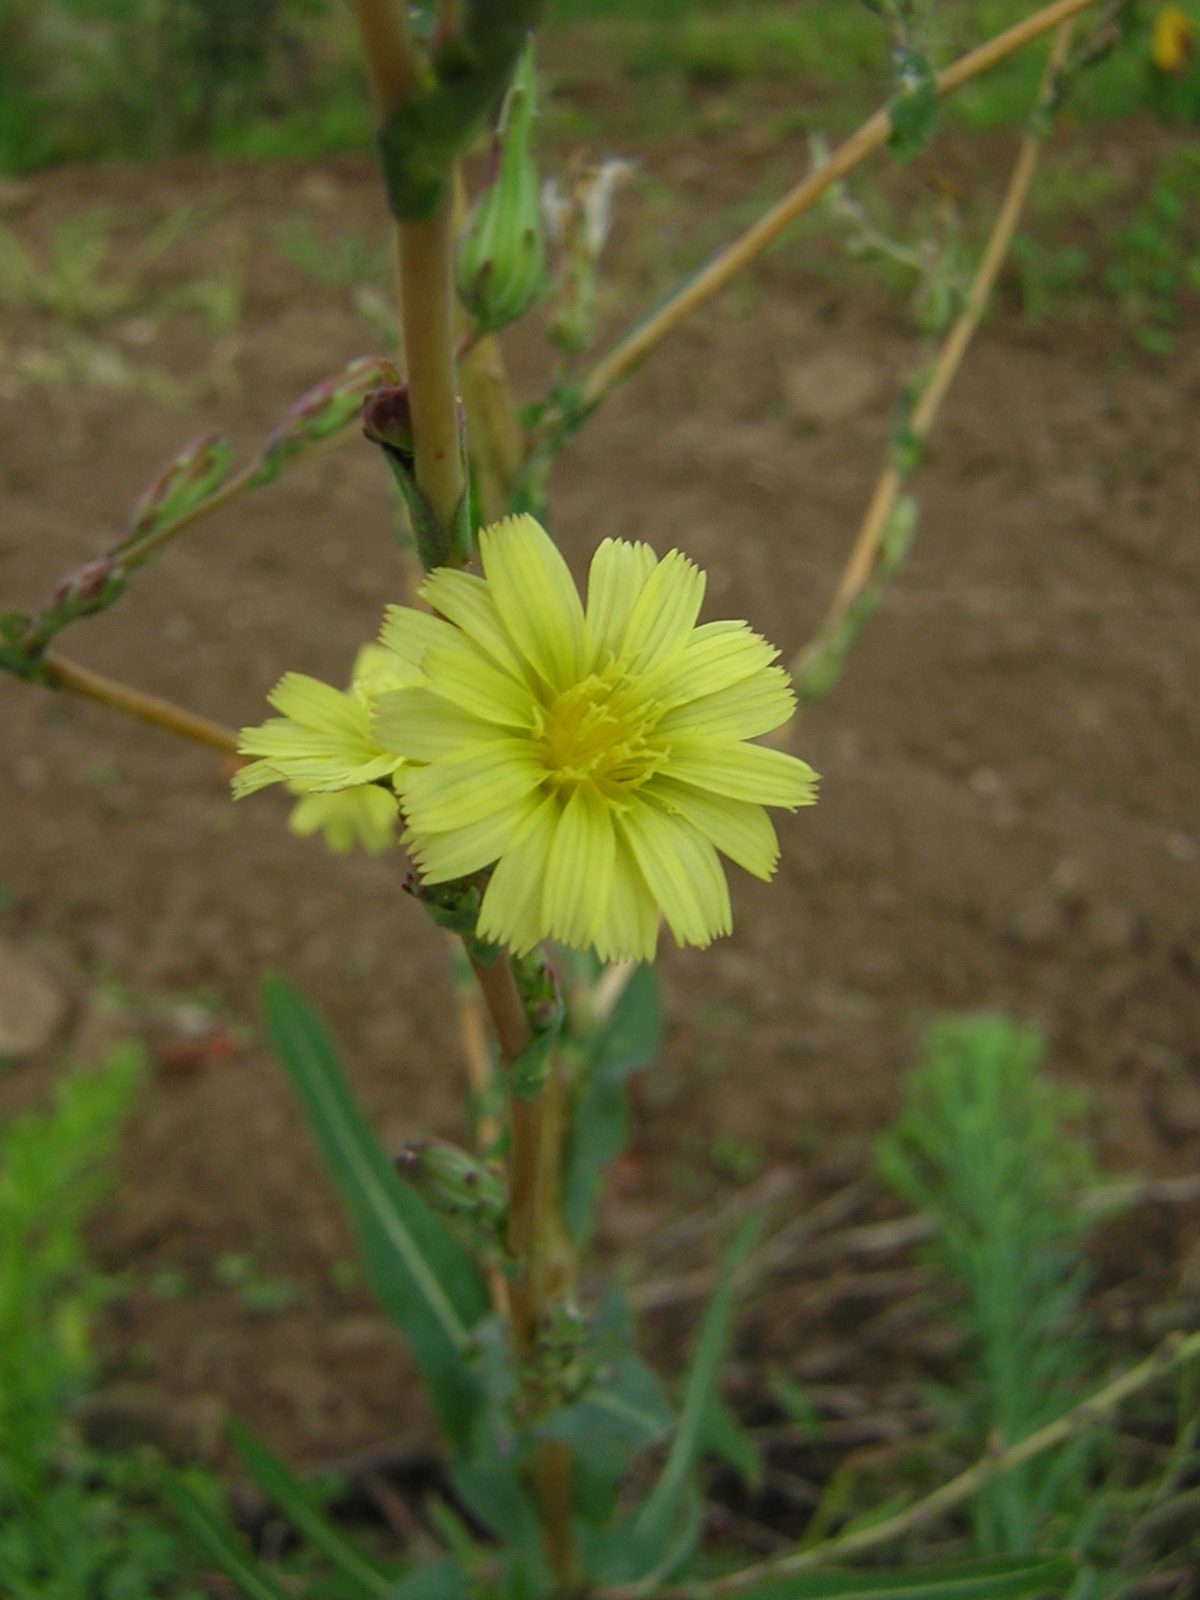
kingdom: Plantae
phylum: Tracheophyta
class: Magnoliopsida
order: Asterales
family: Asteraceae
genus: Lactuca
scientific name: Lactuca serriola
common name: Prickly lettuce
